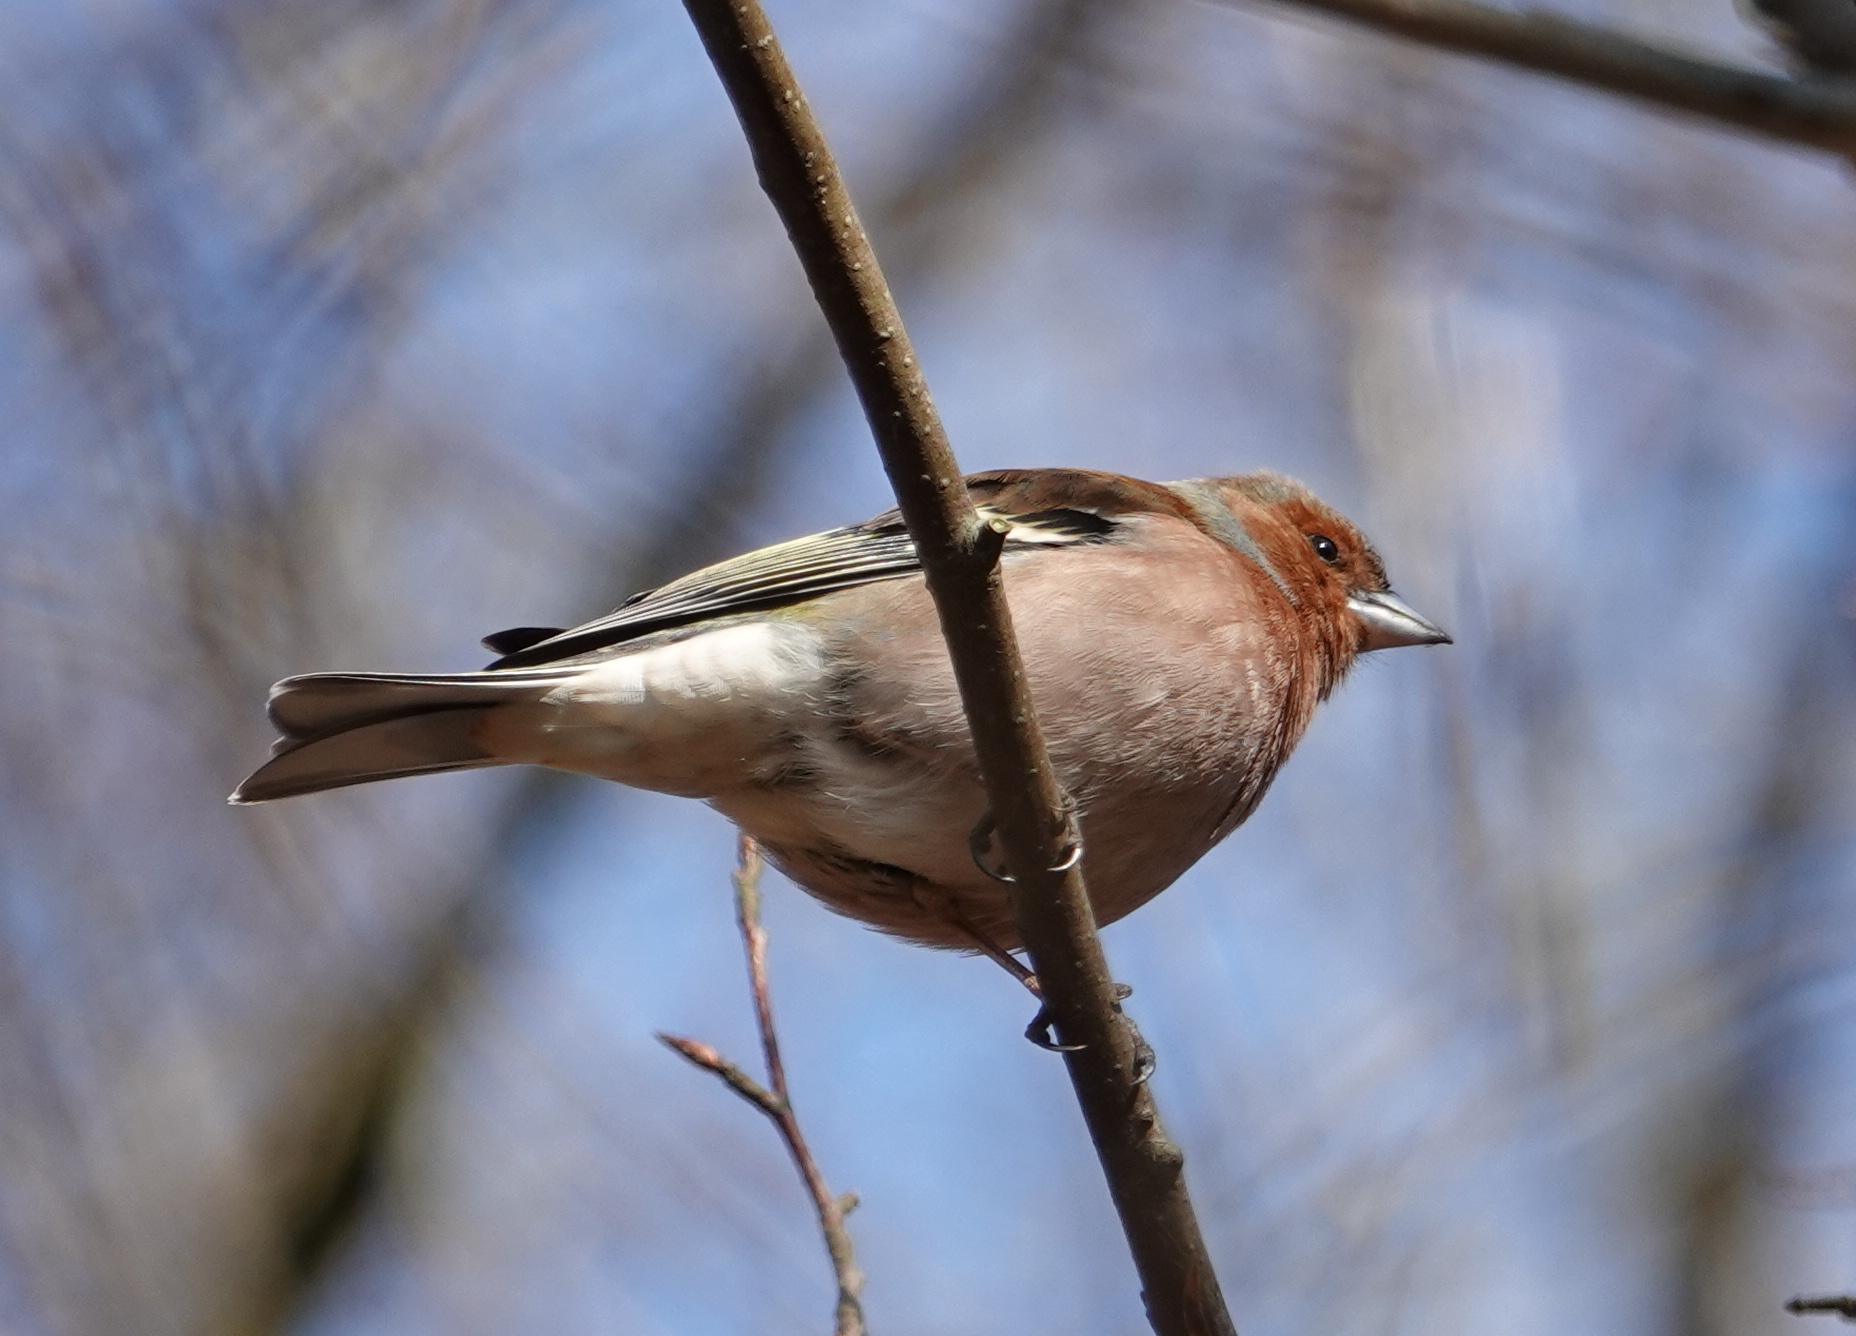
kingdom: Animalia
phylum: Chordata
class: Aves
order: Passeriformes
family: Fringillidae
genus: Fringilla
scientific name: Fringilla coelebs
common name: Common chaffinch
